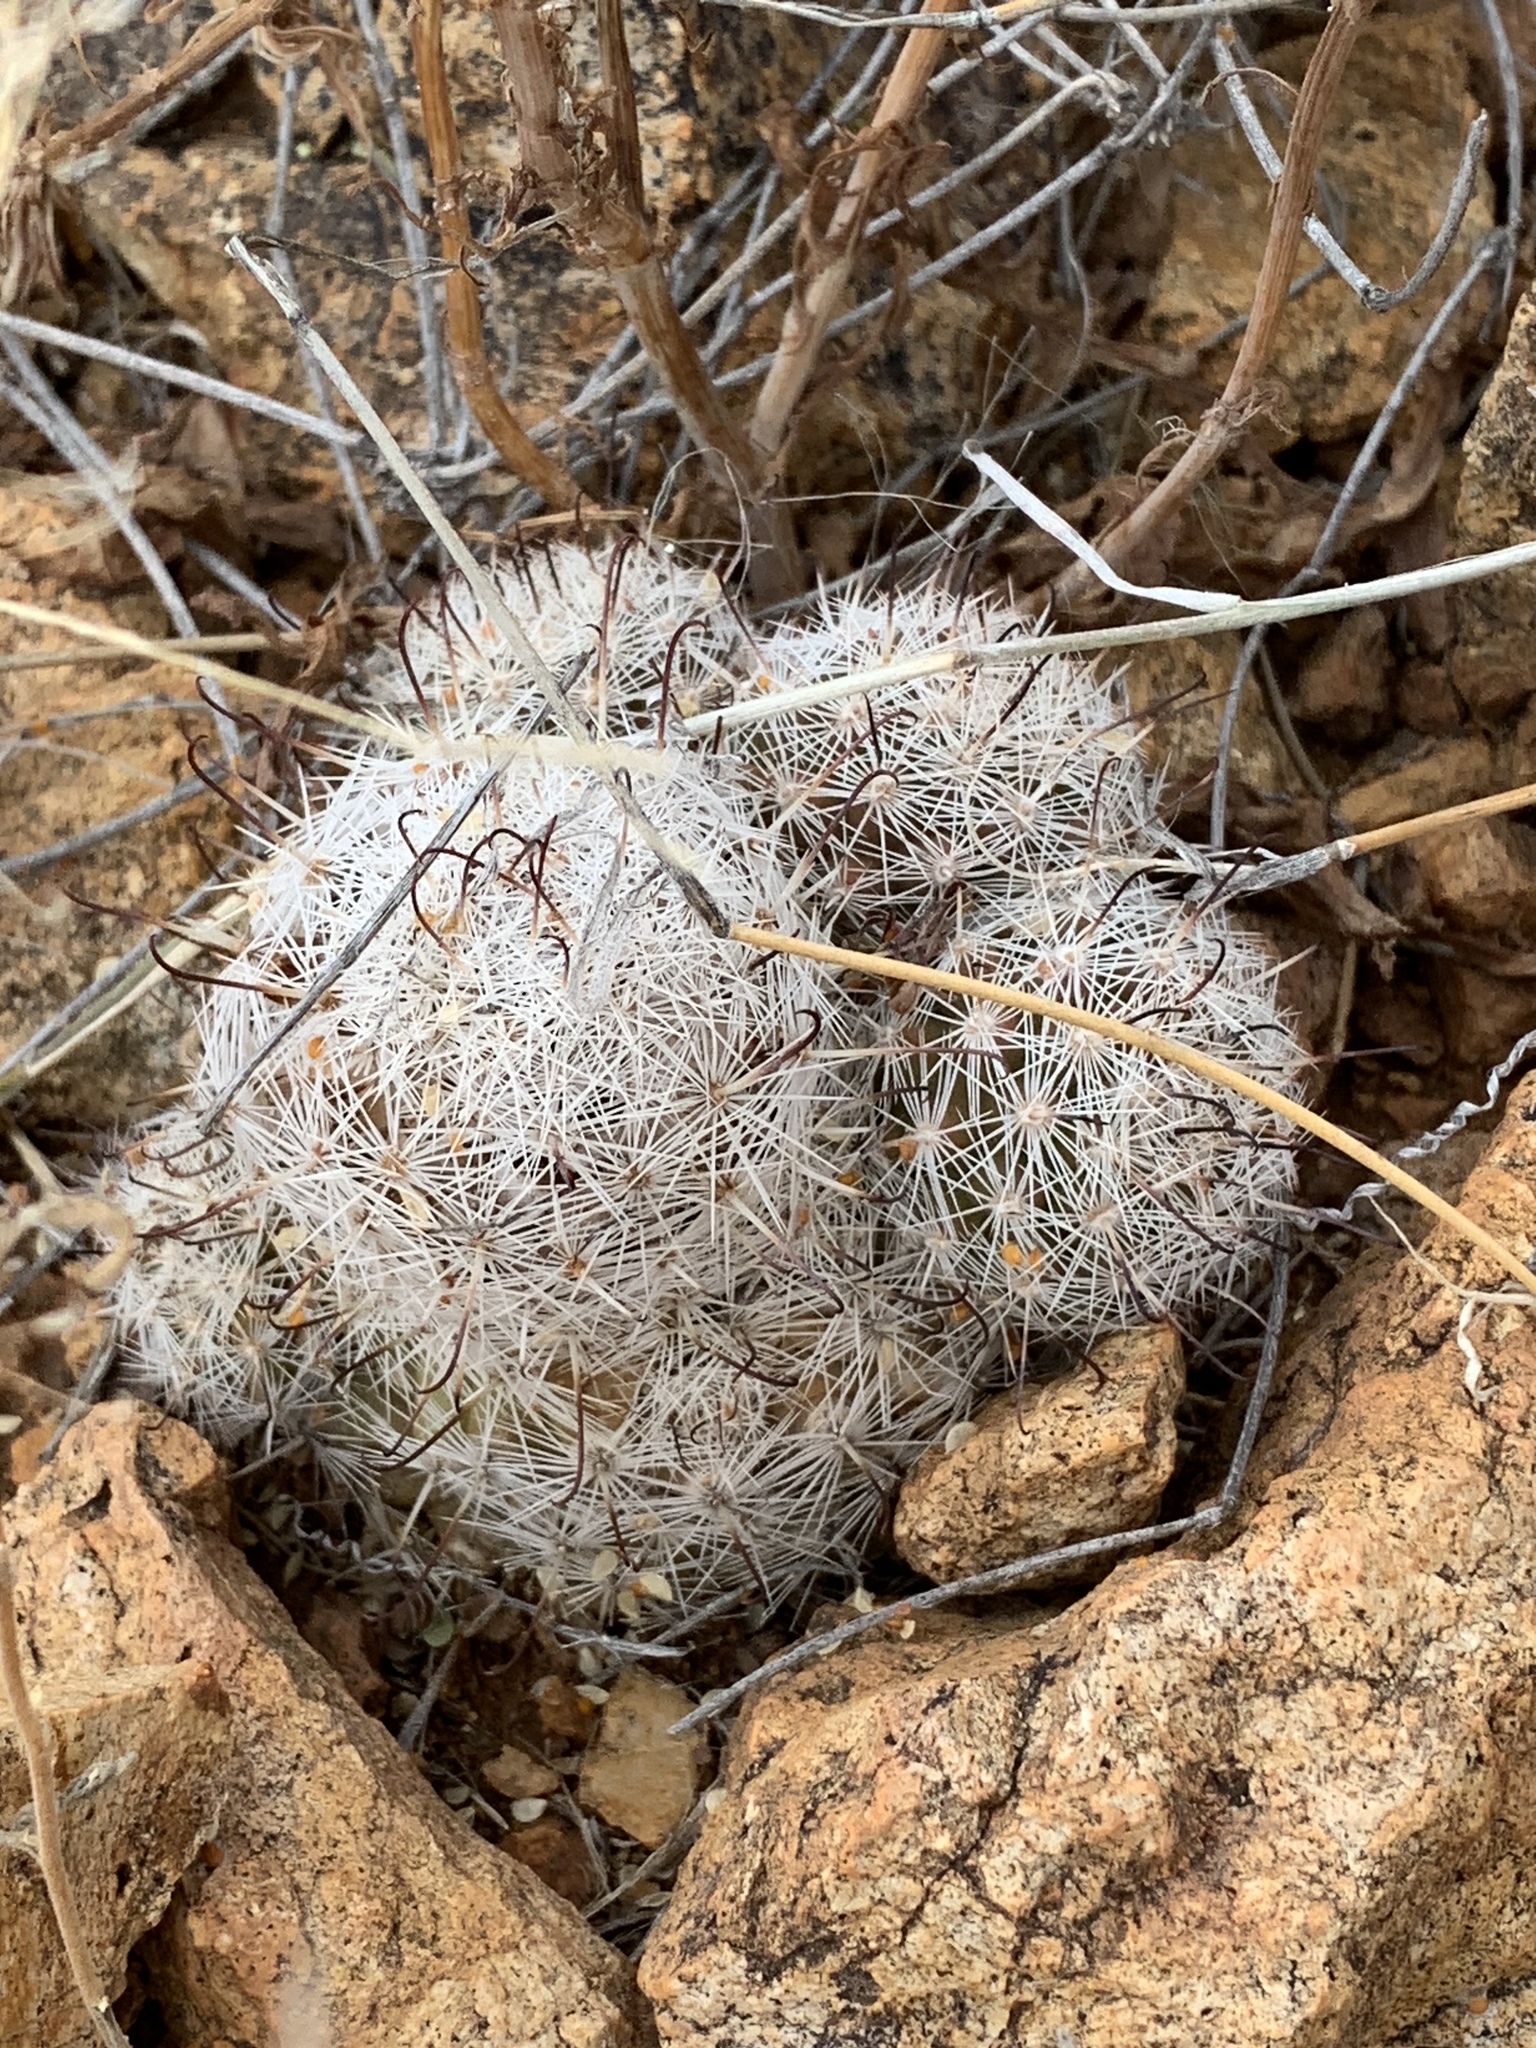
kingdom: Plantae
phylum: Tracheophyta
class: Magnoliopsida
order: Caryophyllales
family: Cactaceae
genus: Cochemiea
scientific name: Cochemiea grahamii
